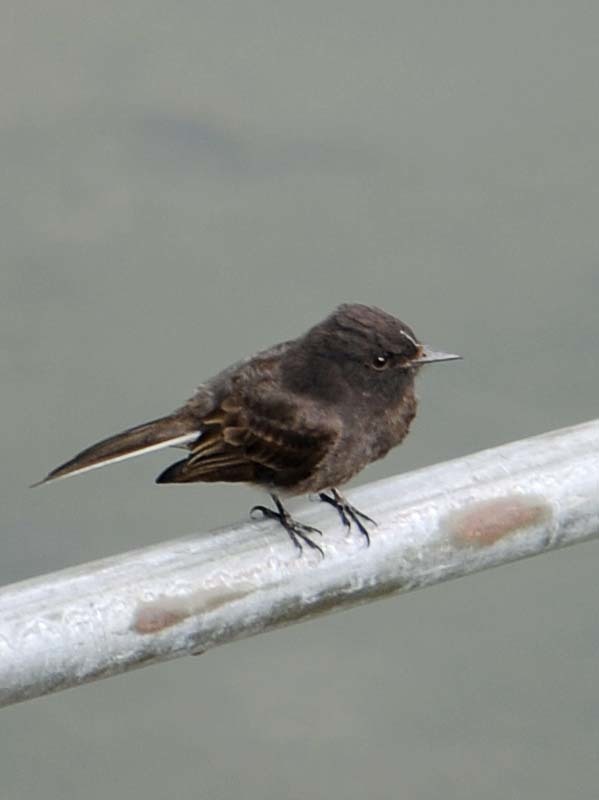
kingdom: Animalia
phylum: Chordata
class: Aves
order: Passeriformes
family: Tyrannidae
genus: Sayornis
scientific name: Sayornis nigricans
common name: Black phoebe
